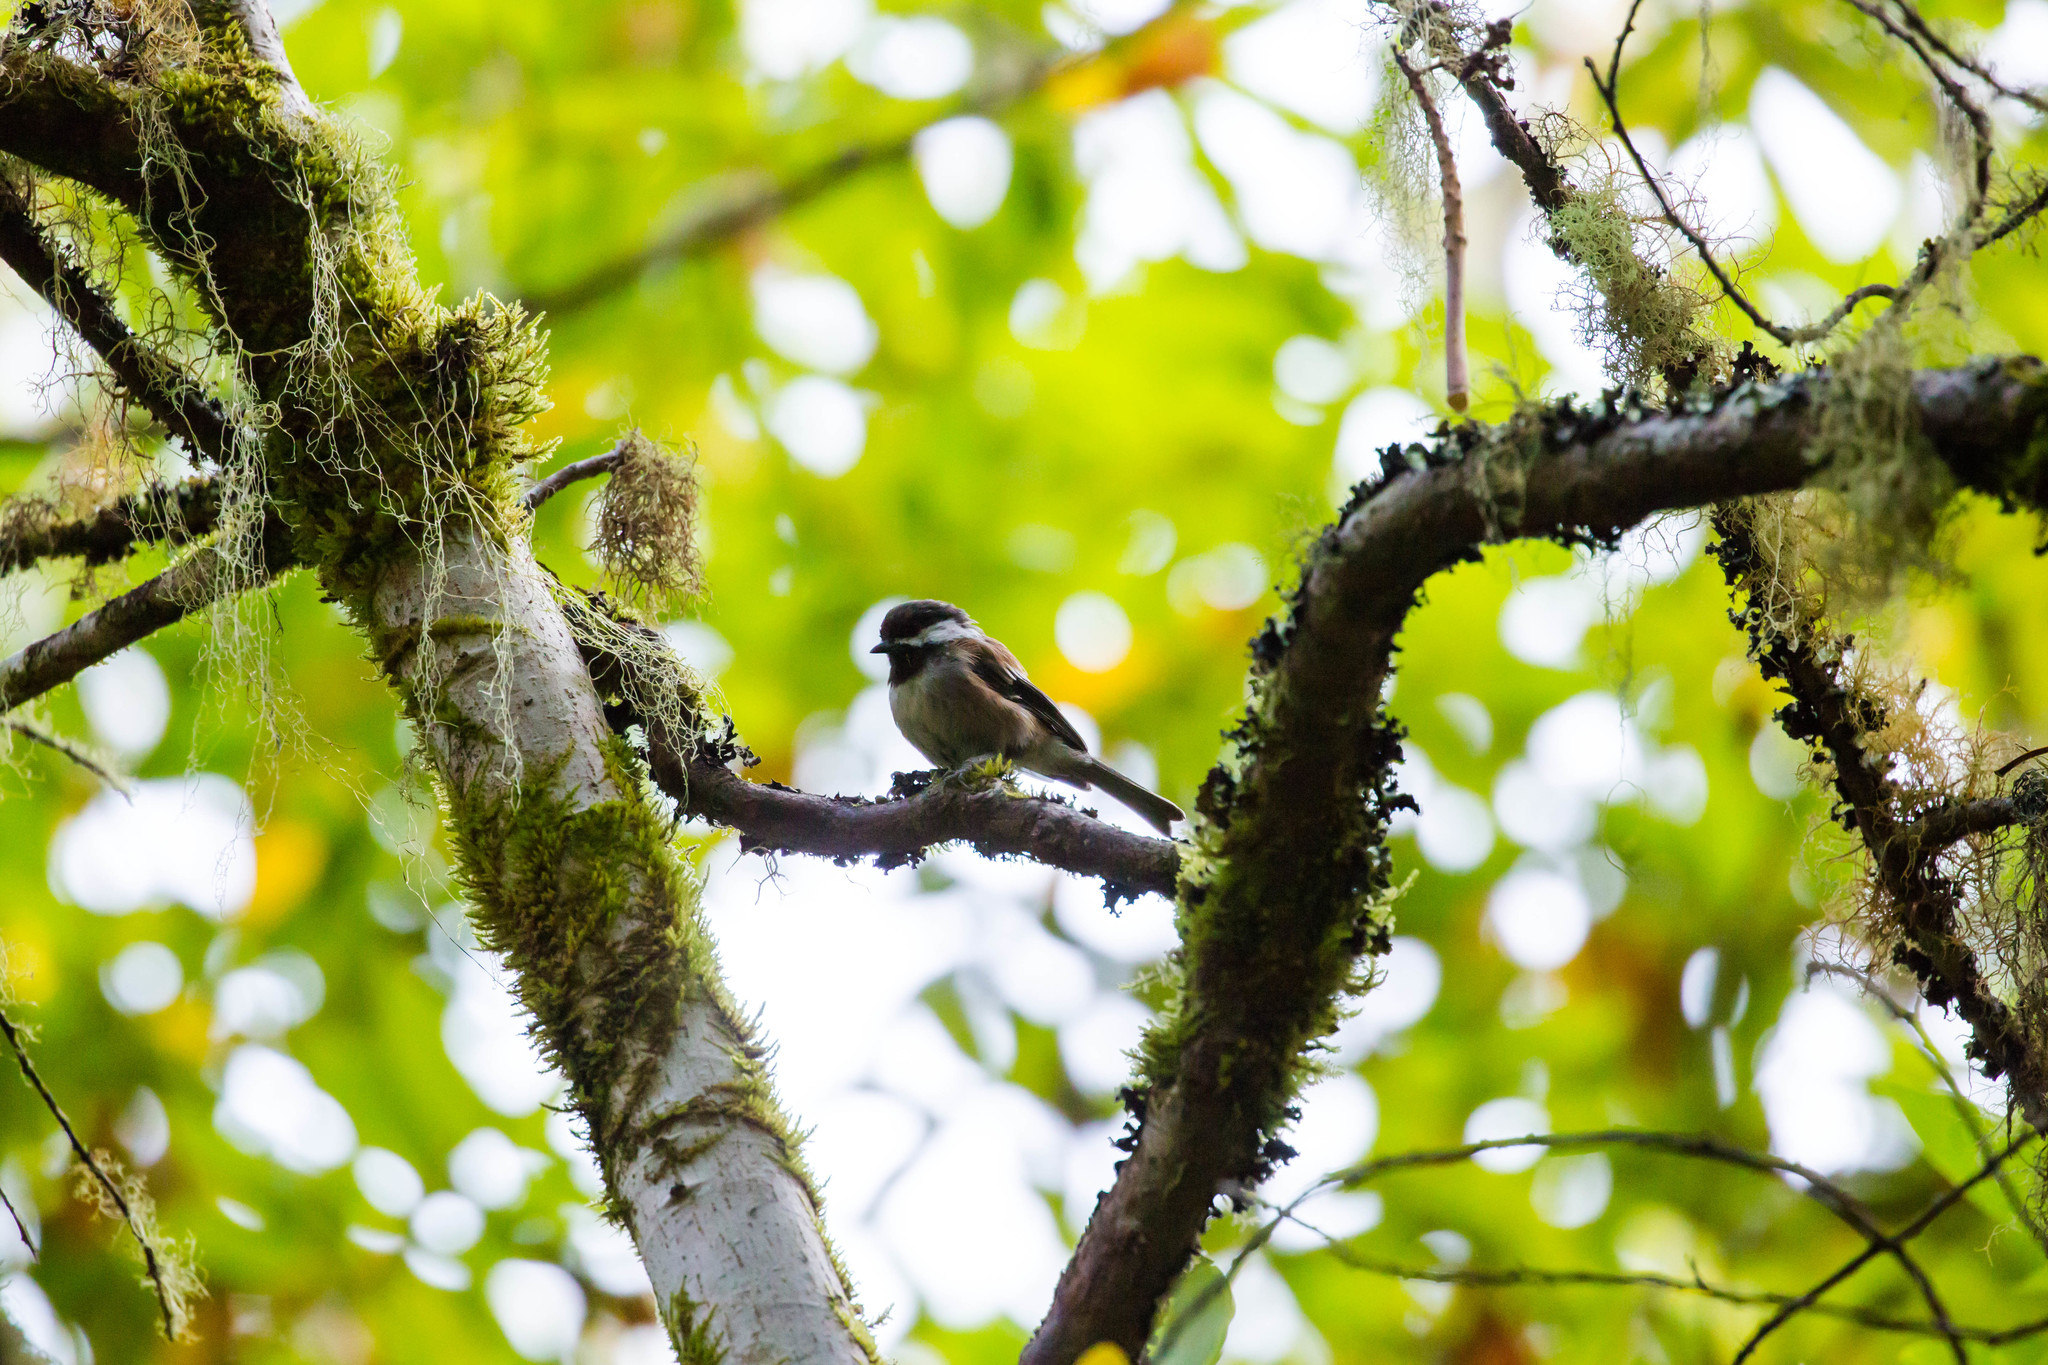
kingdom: Animalia
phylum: Chordata
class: Aves
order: Passeriformes
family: Paridae
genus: Poecile
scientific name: Poecile rufescens
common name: Chestnut-backed chickadee
